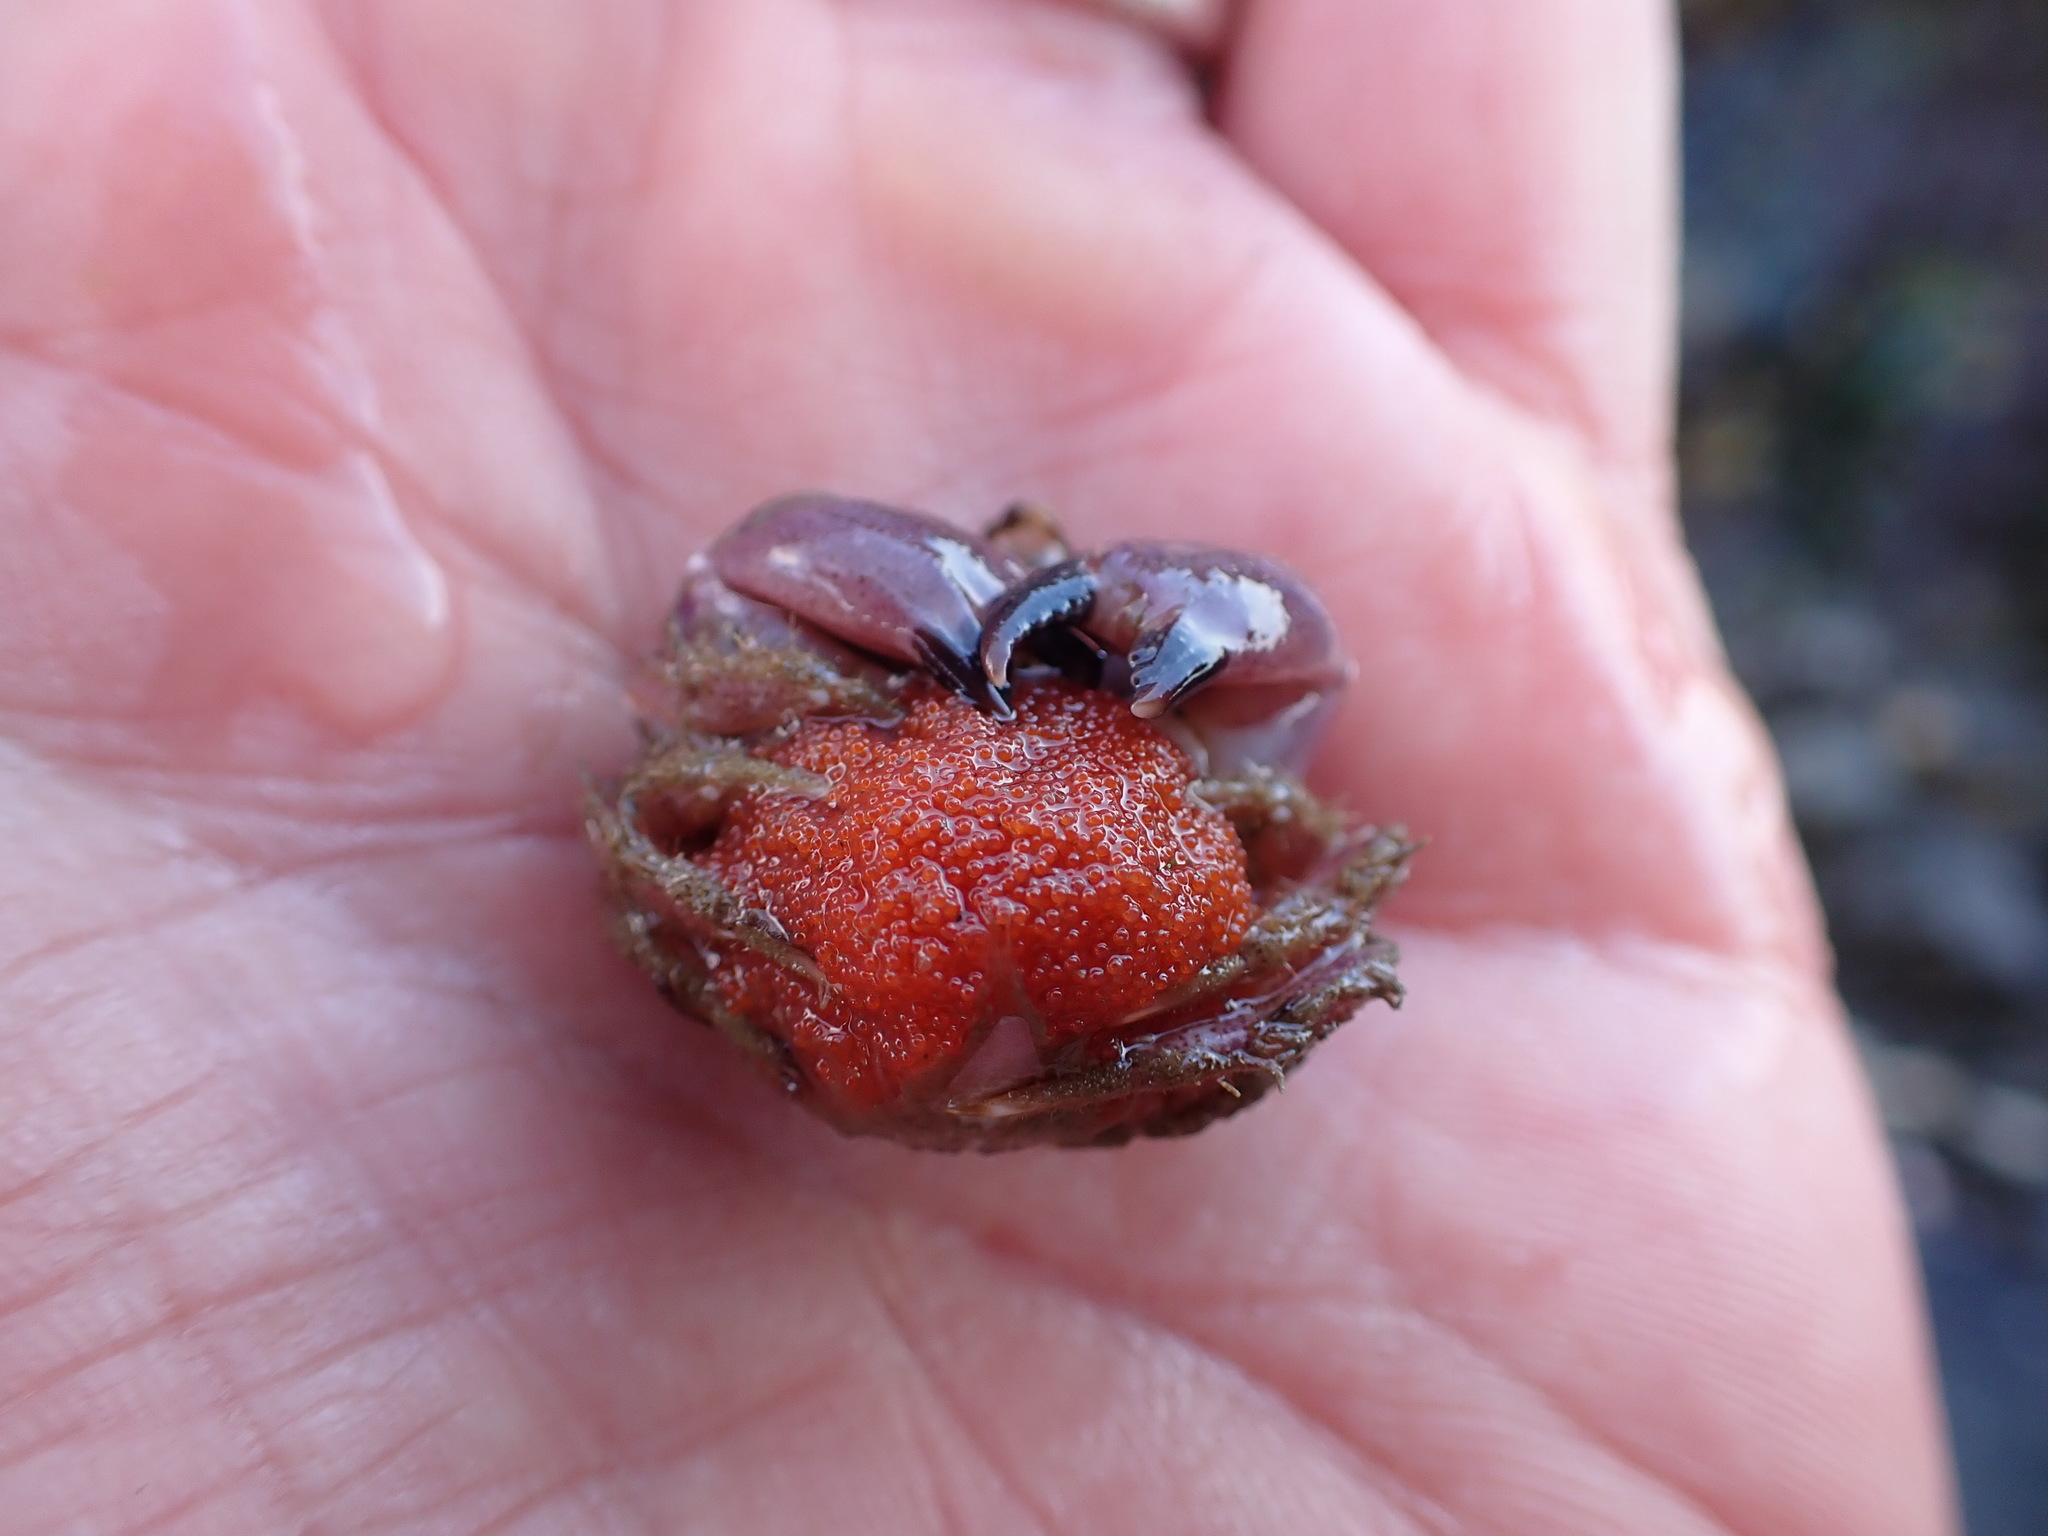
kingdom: Animalia
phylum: Arthropoda
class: Malacostraca
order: Decapoda
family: Cancridae
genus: Glebocarcinus
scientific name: Glebocarcinus oregonensis
